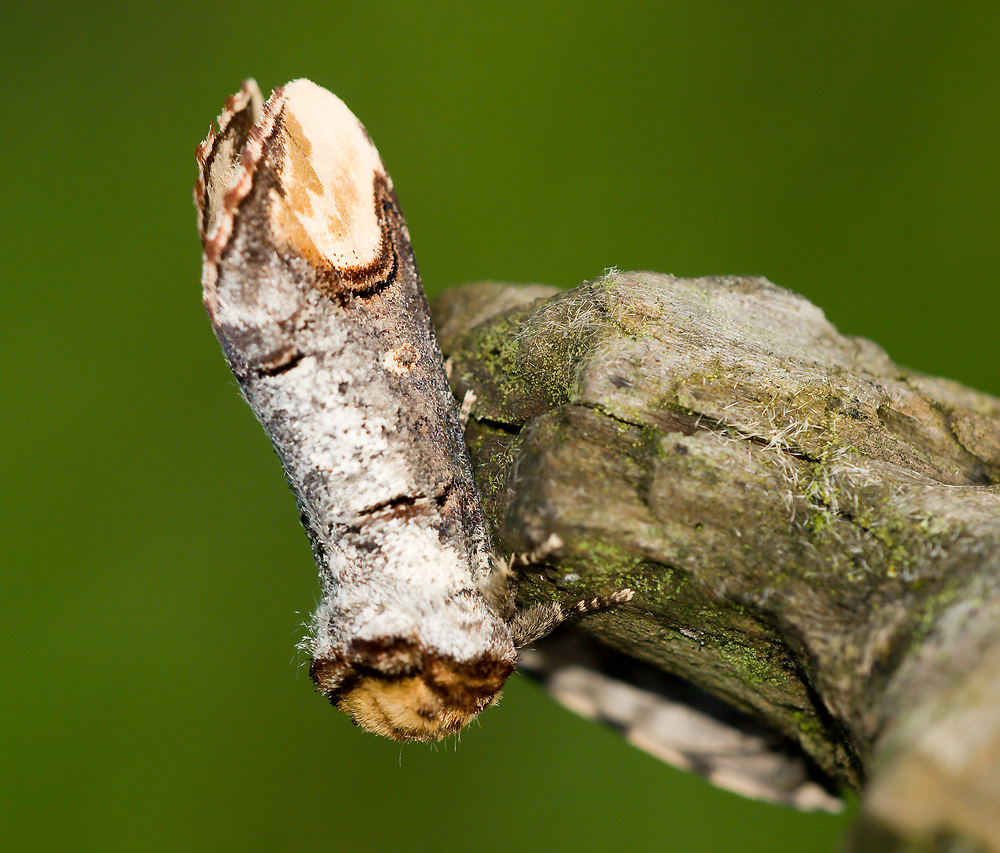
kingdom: Animalia
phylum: Arthropoda
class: Insecta
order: Lepidoptera
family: Notodontidae
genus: Phalera
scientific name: Phalera bucephala
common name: Buff-tip
